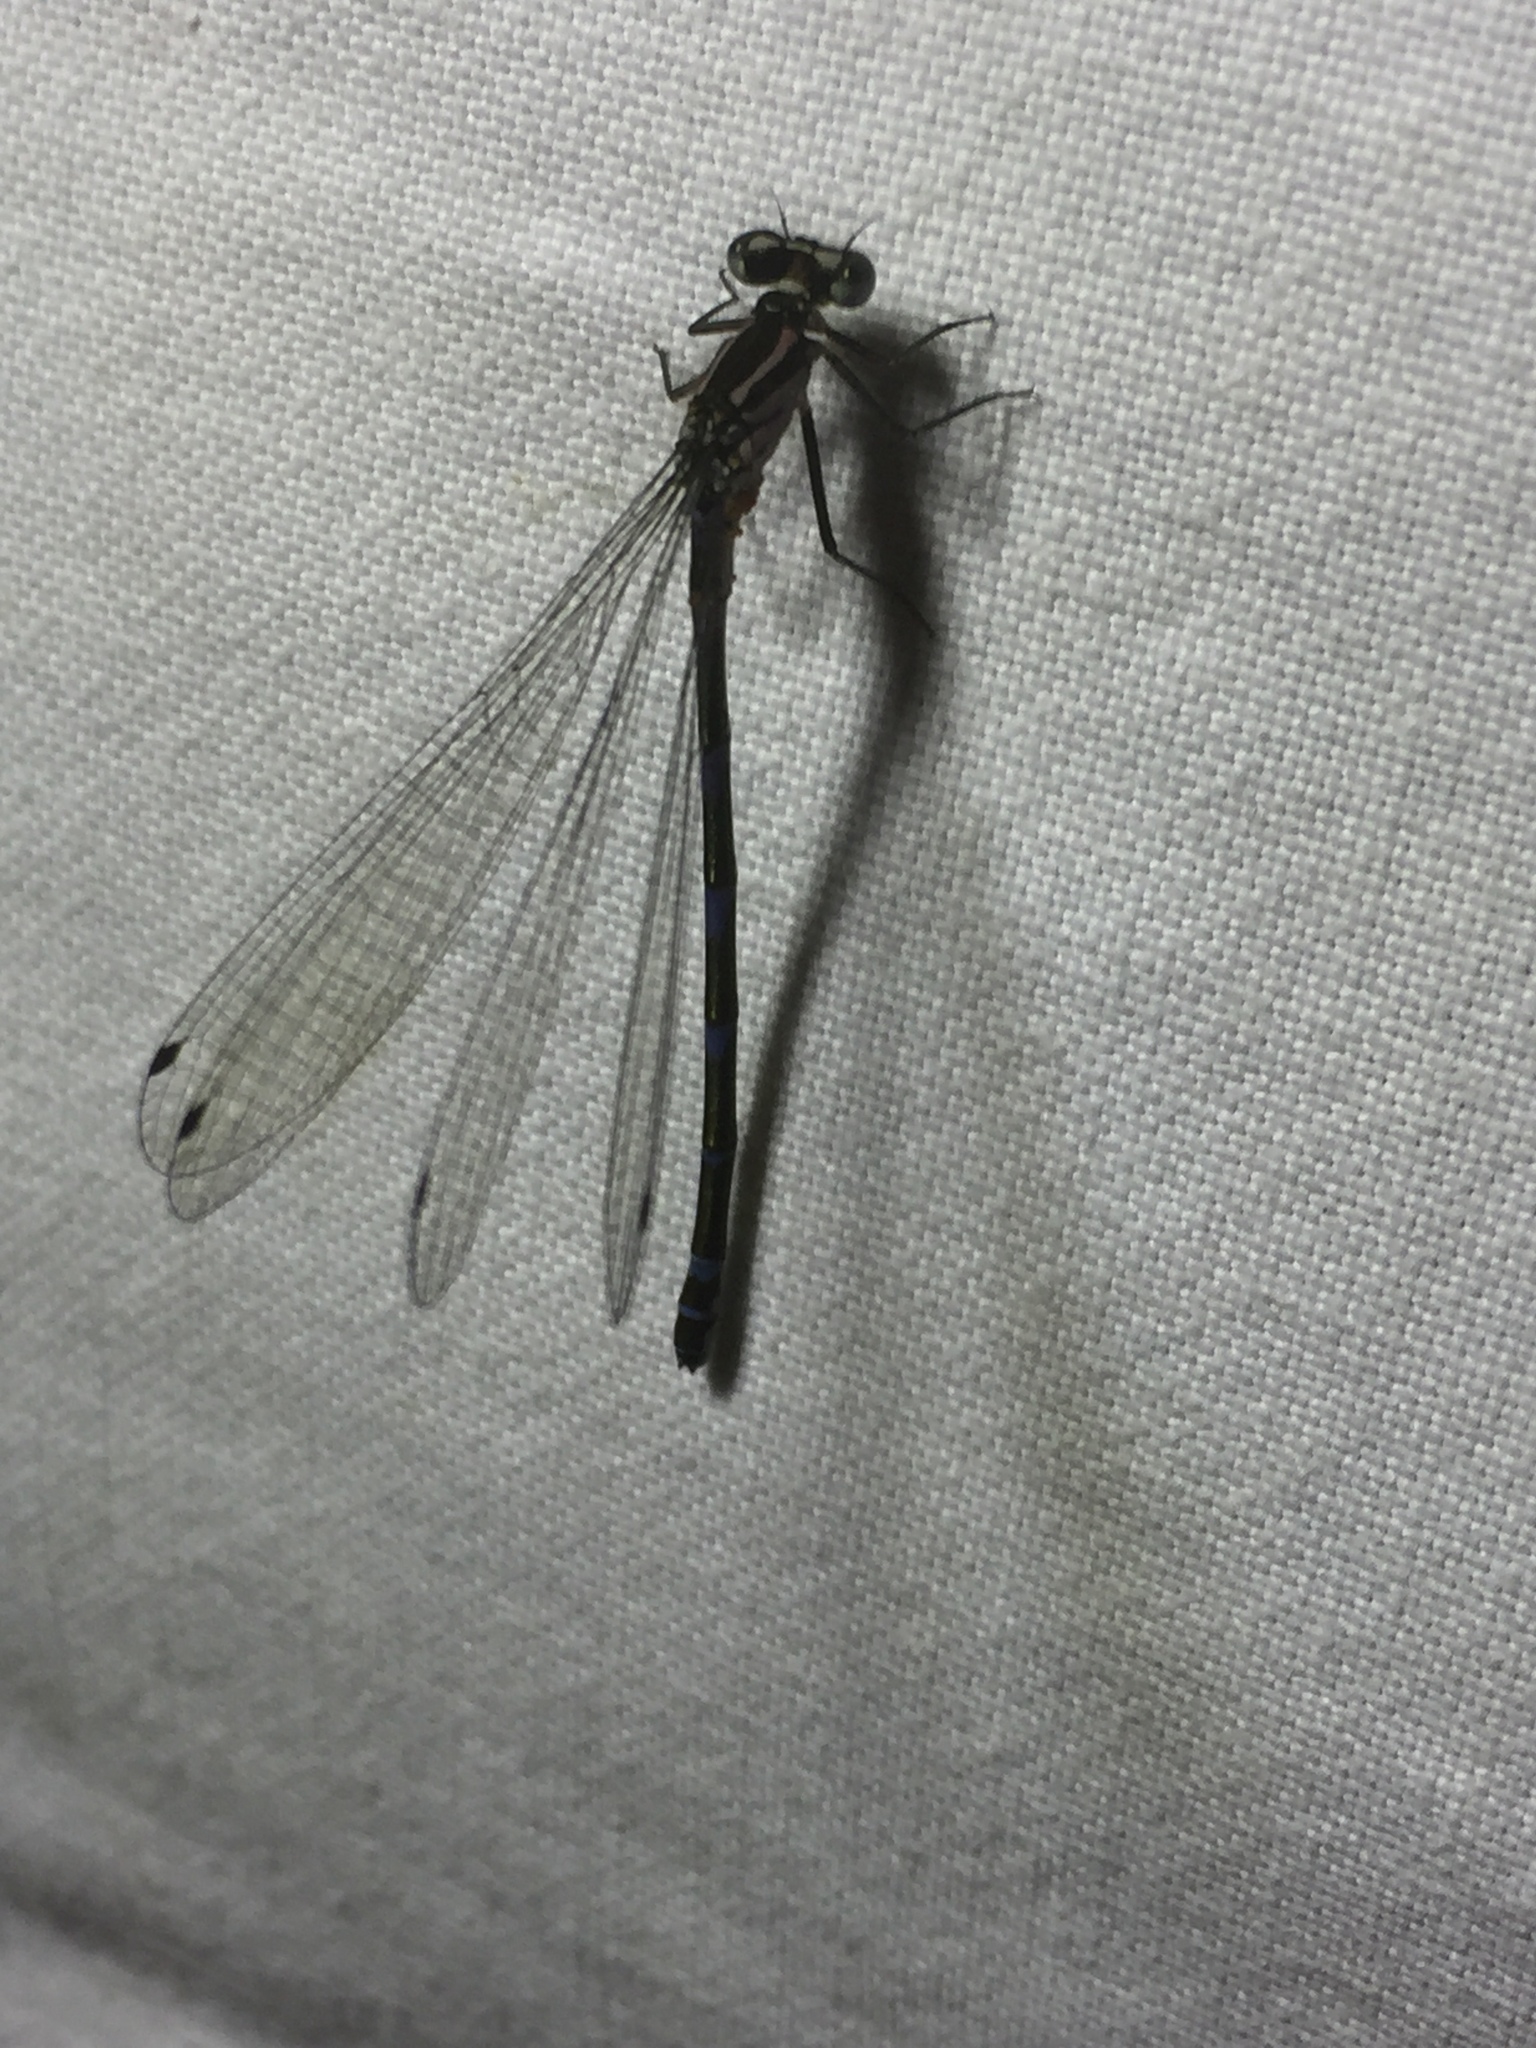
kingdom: Animalia
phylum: Arthropoda
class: Insecta
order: Odonata
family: Coenagrionidae
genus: Coenagrion
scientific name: Coenagrion pulchellum
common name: Variable bluet
